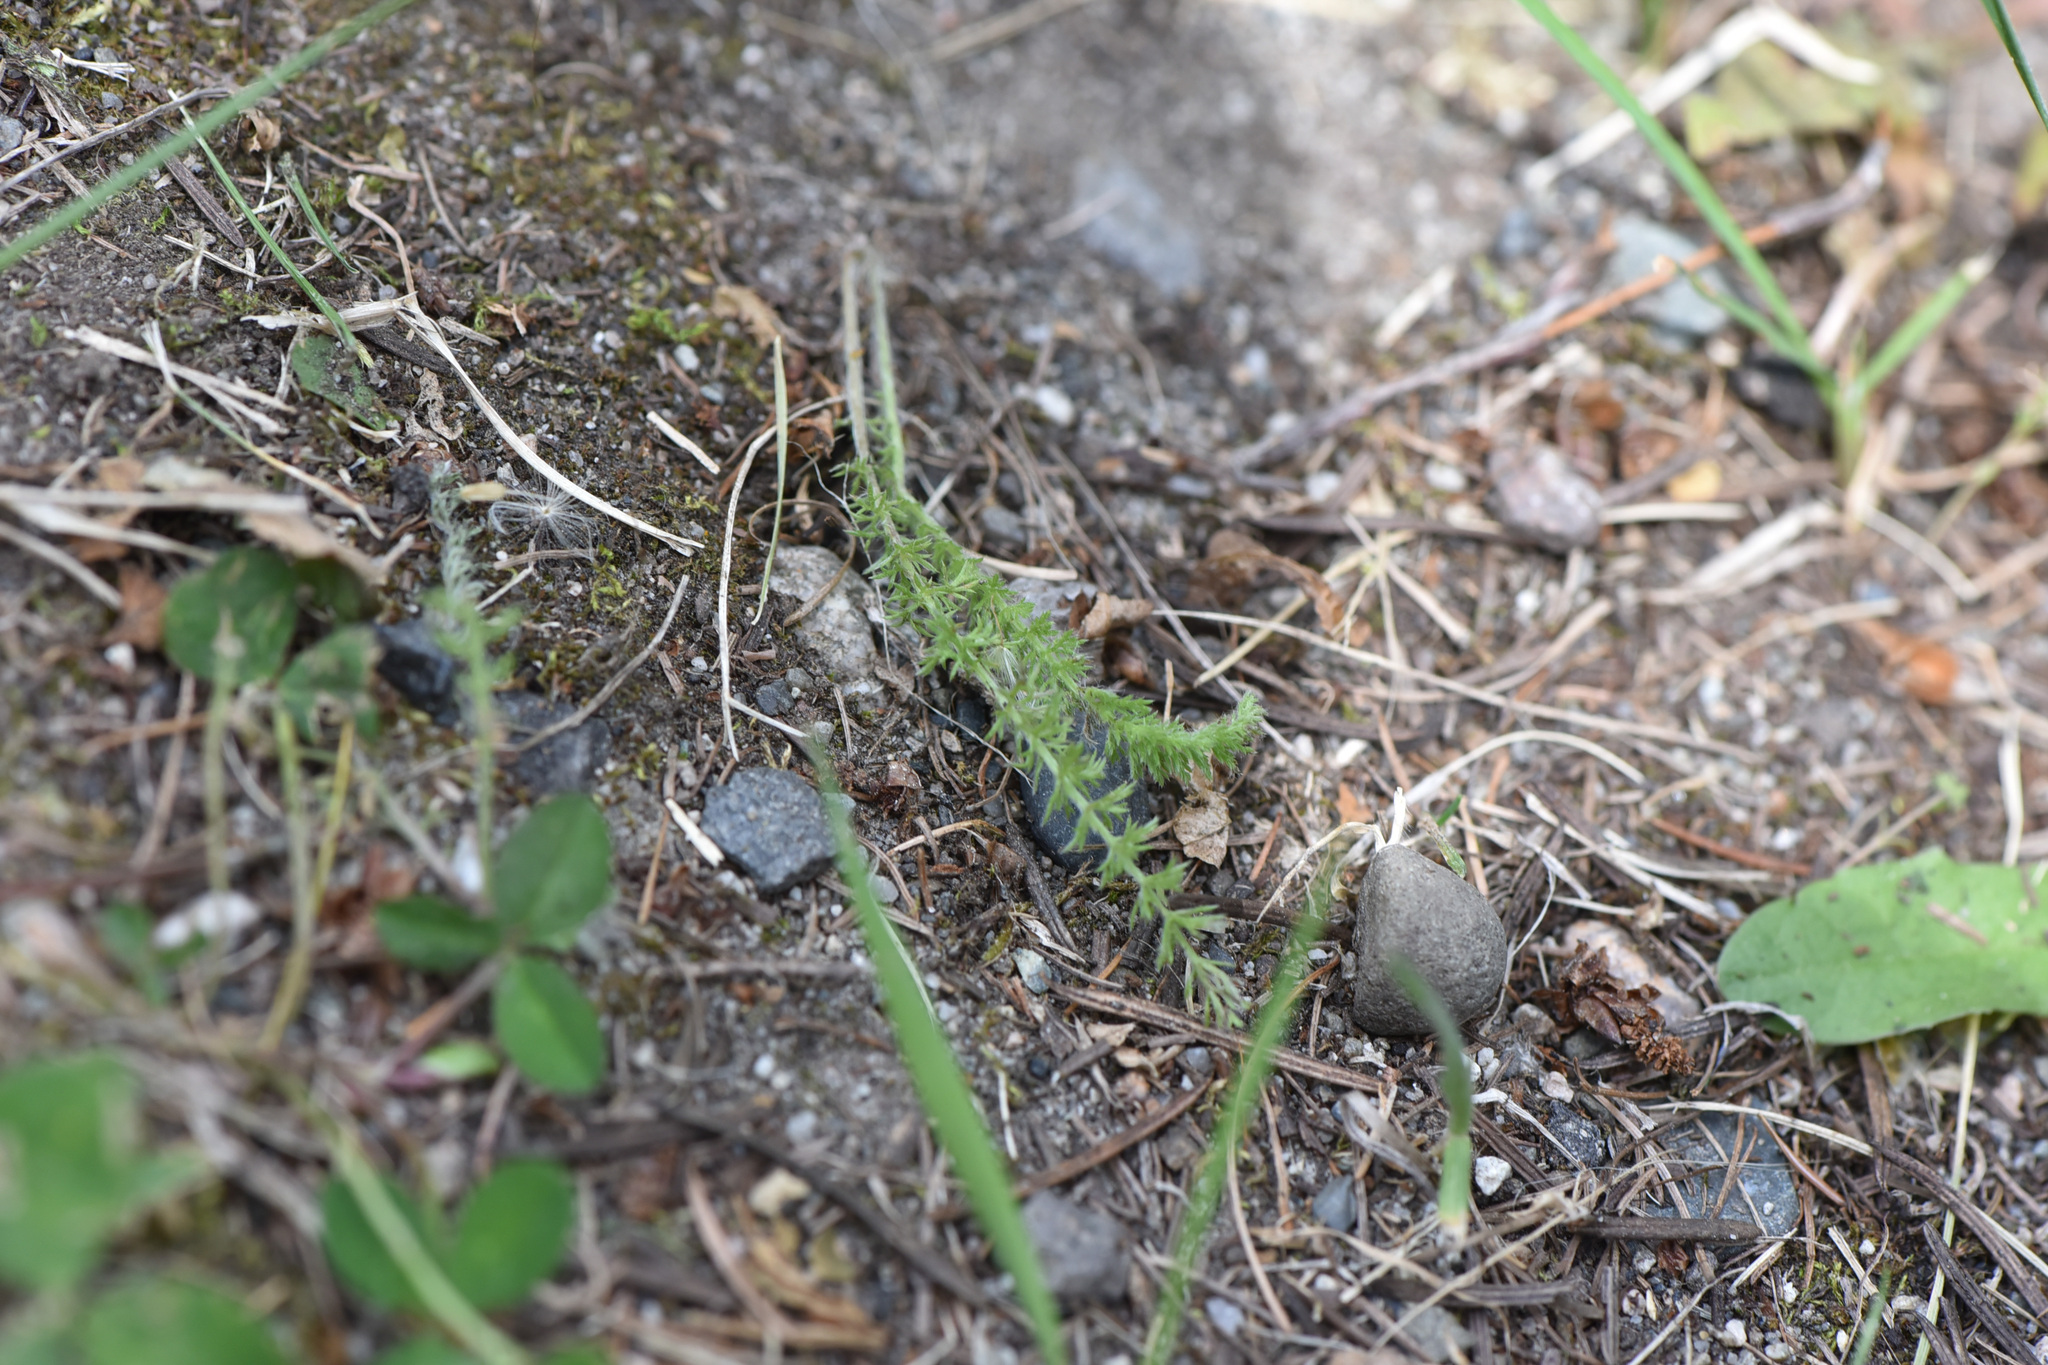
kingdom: Plantae
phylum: Tracheophyta
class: Magnoliopsida
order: Asterales
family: Asteraceae
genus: Achillea
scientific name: Achillea millefolium
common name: Yarrow
